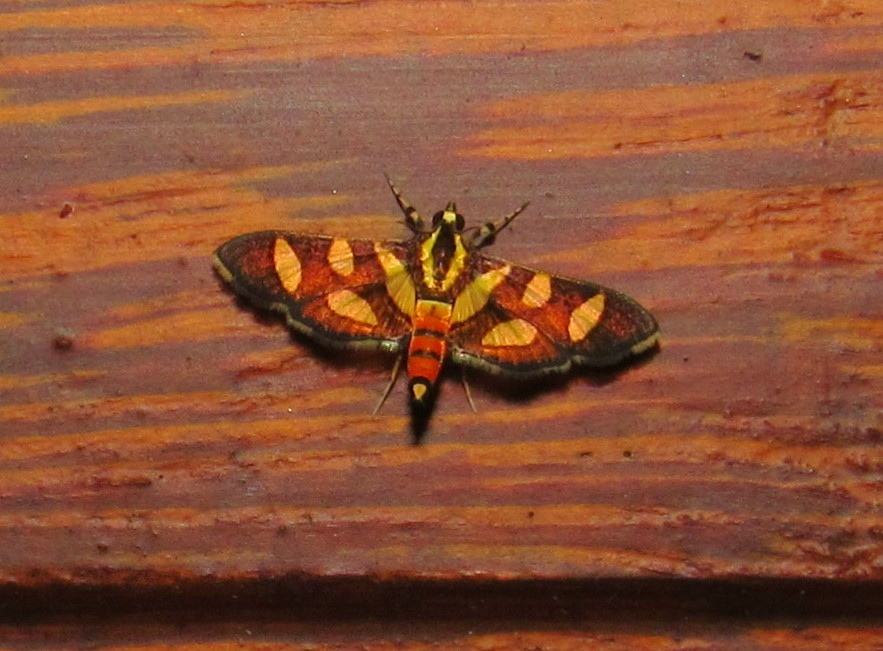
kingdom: Animalia
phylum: Arthropoda
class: Insecta
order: Lepidoptera
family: Crambidae
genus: Syngamia
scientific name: Syngamia florella
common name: Orange-spotted flower moth
